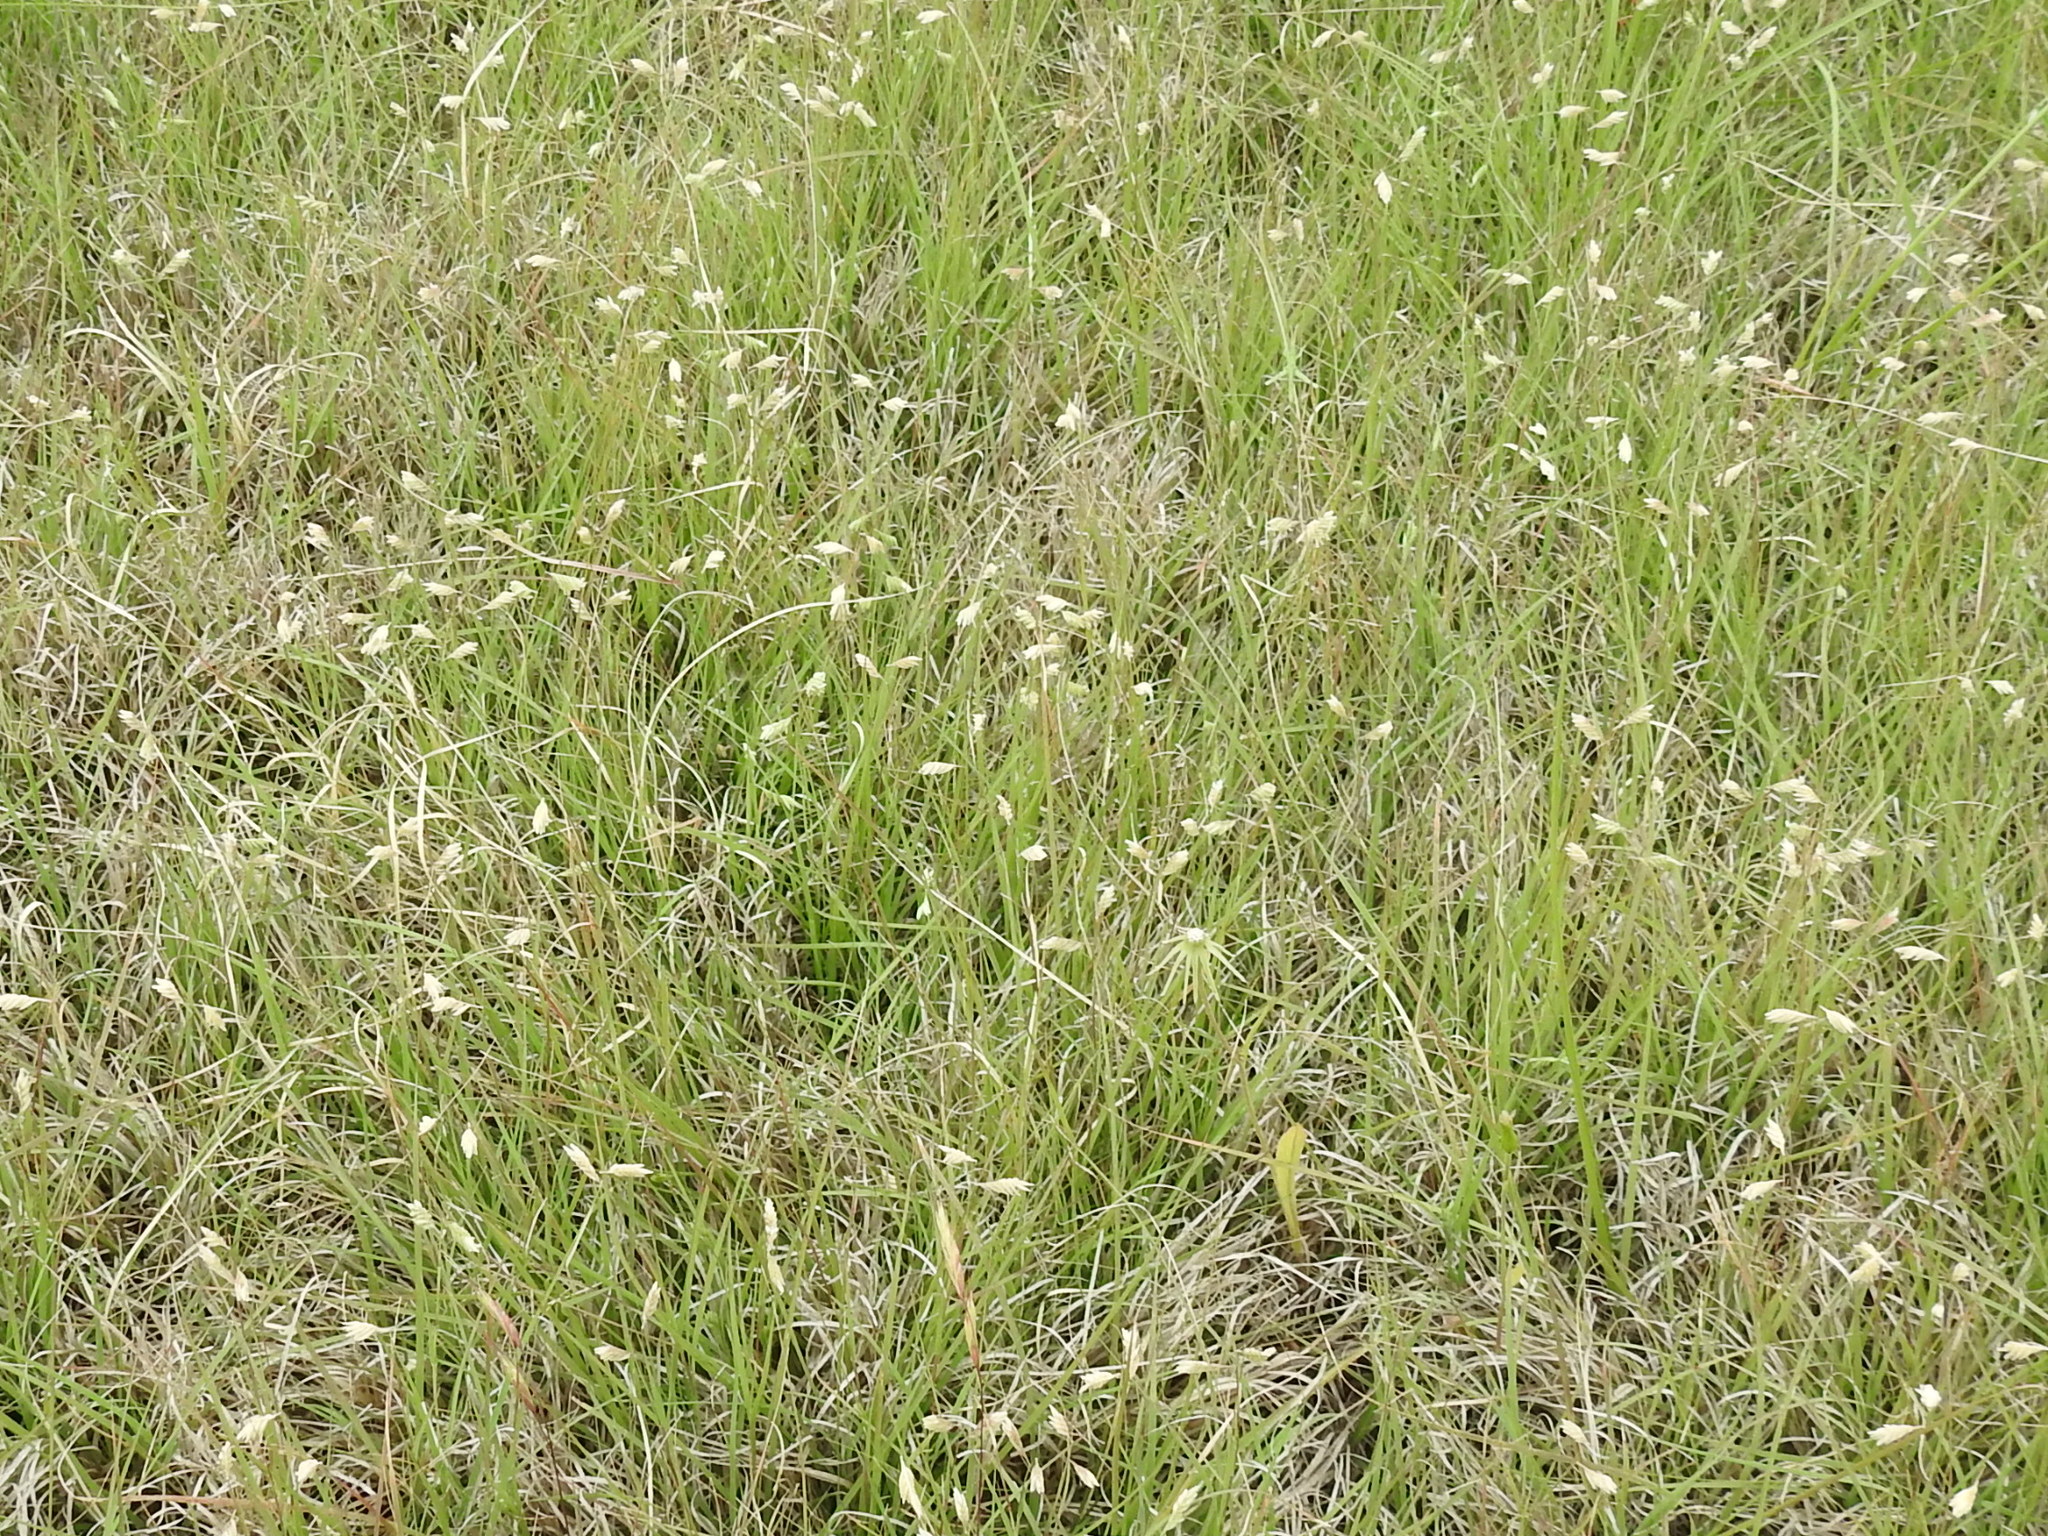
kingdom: Plantae
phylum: Tracheophyta
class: Liliopsida
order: Poales
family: Poaceae
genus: Bouteloua
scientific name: Bouteloua dactyloides
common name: Buffalo grass
